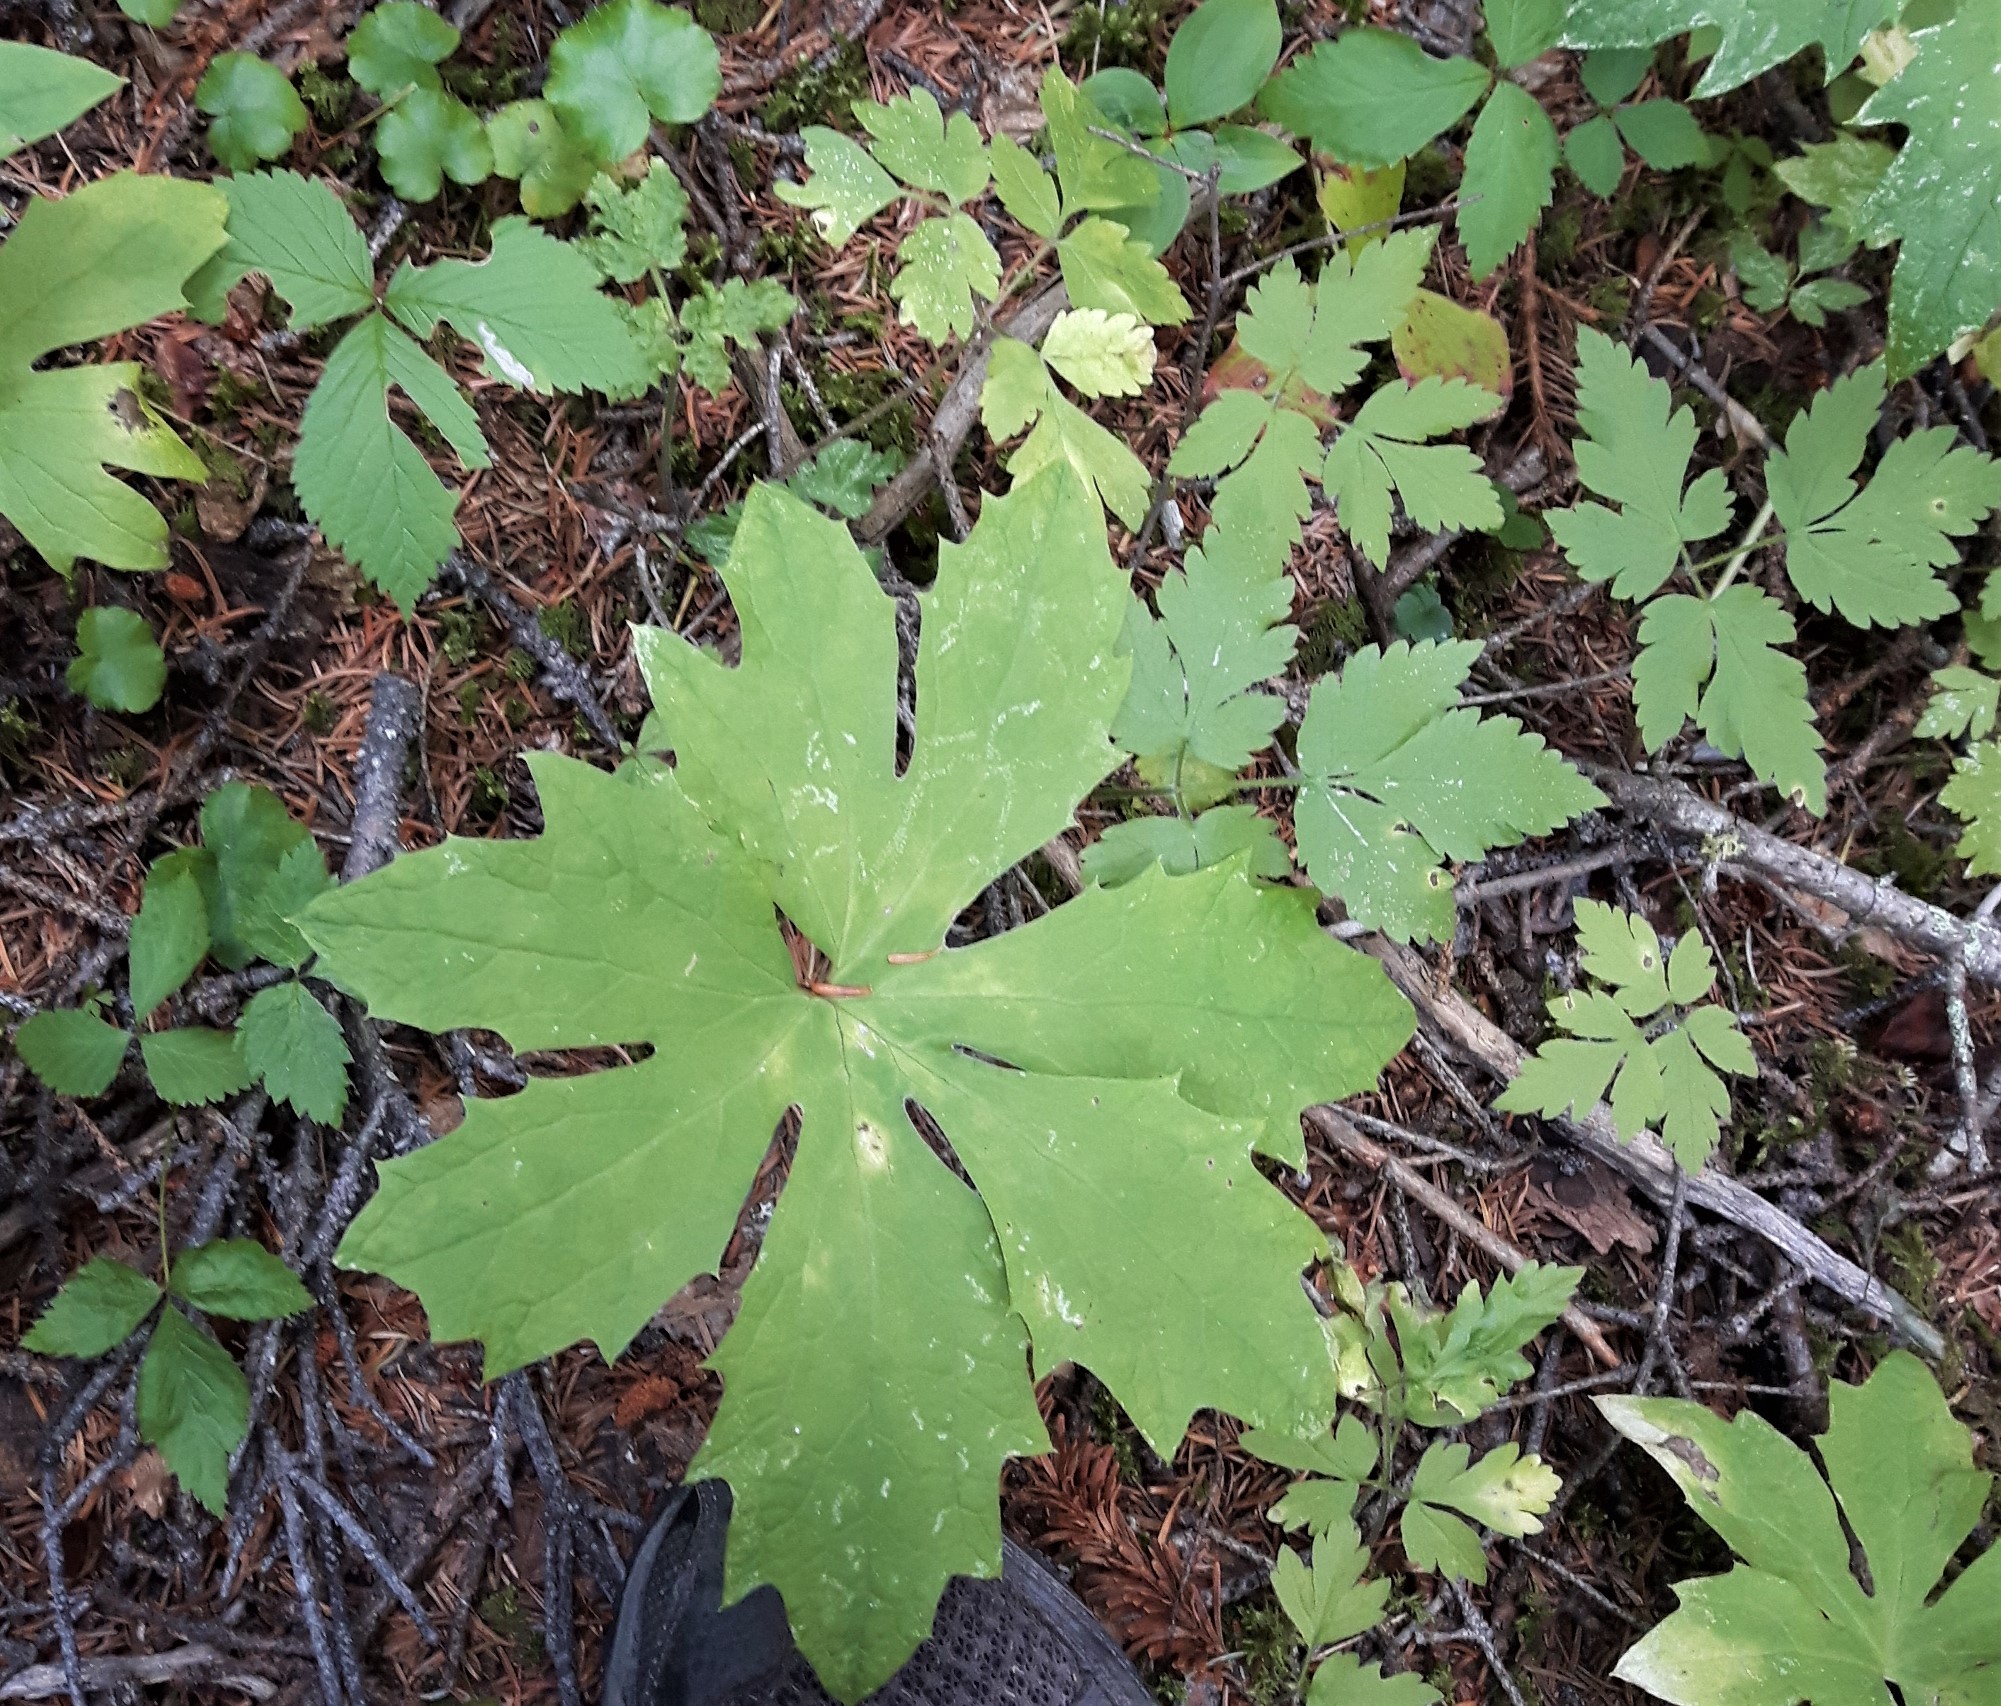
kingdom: Plantae
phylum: Tracheophyta
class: Magnoliopsida
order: Asterales
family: Asteraceae
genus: Petasites
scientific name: Petasites frigidus
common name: Arctic butterbur
